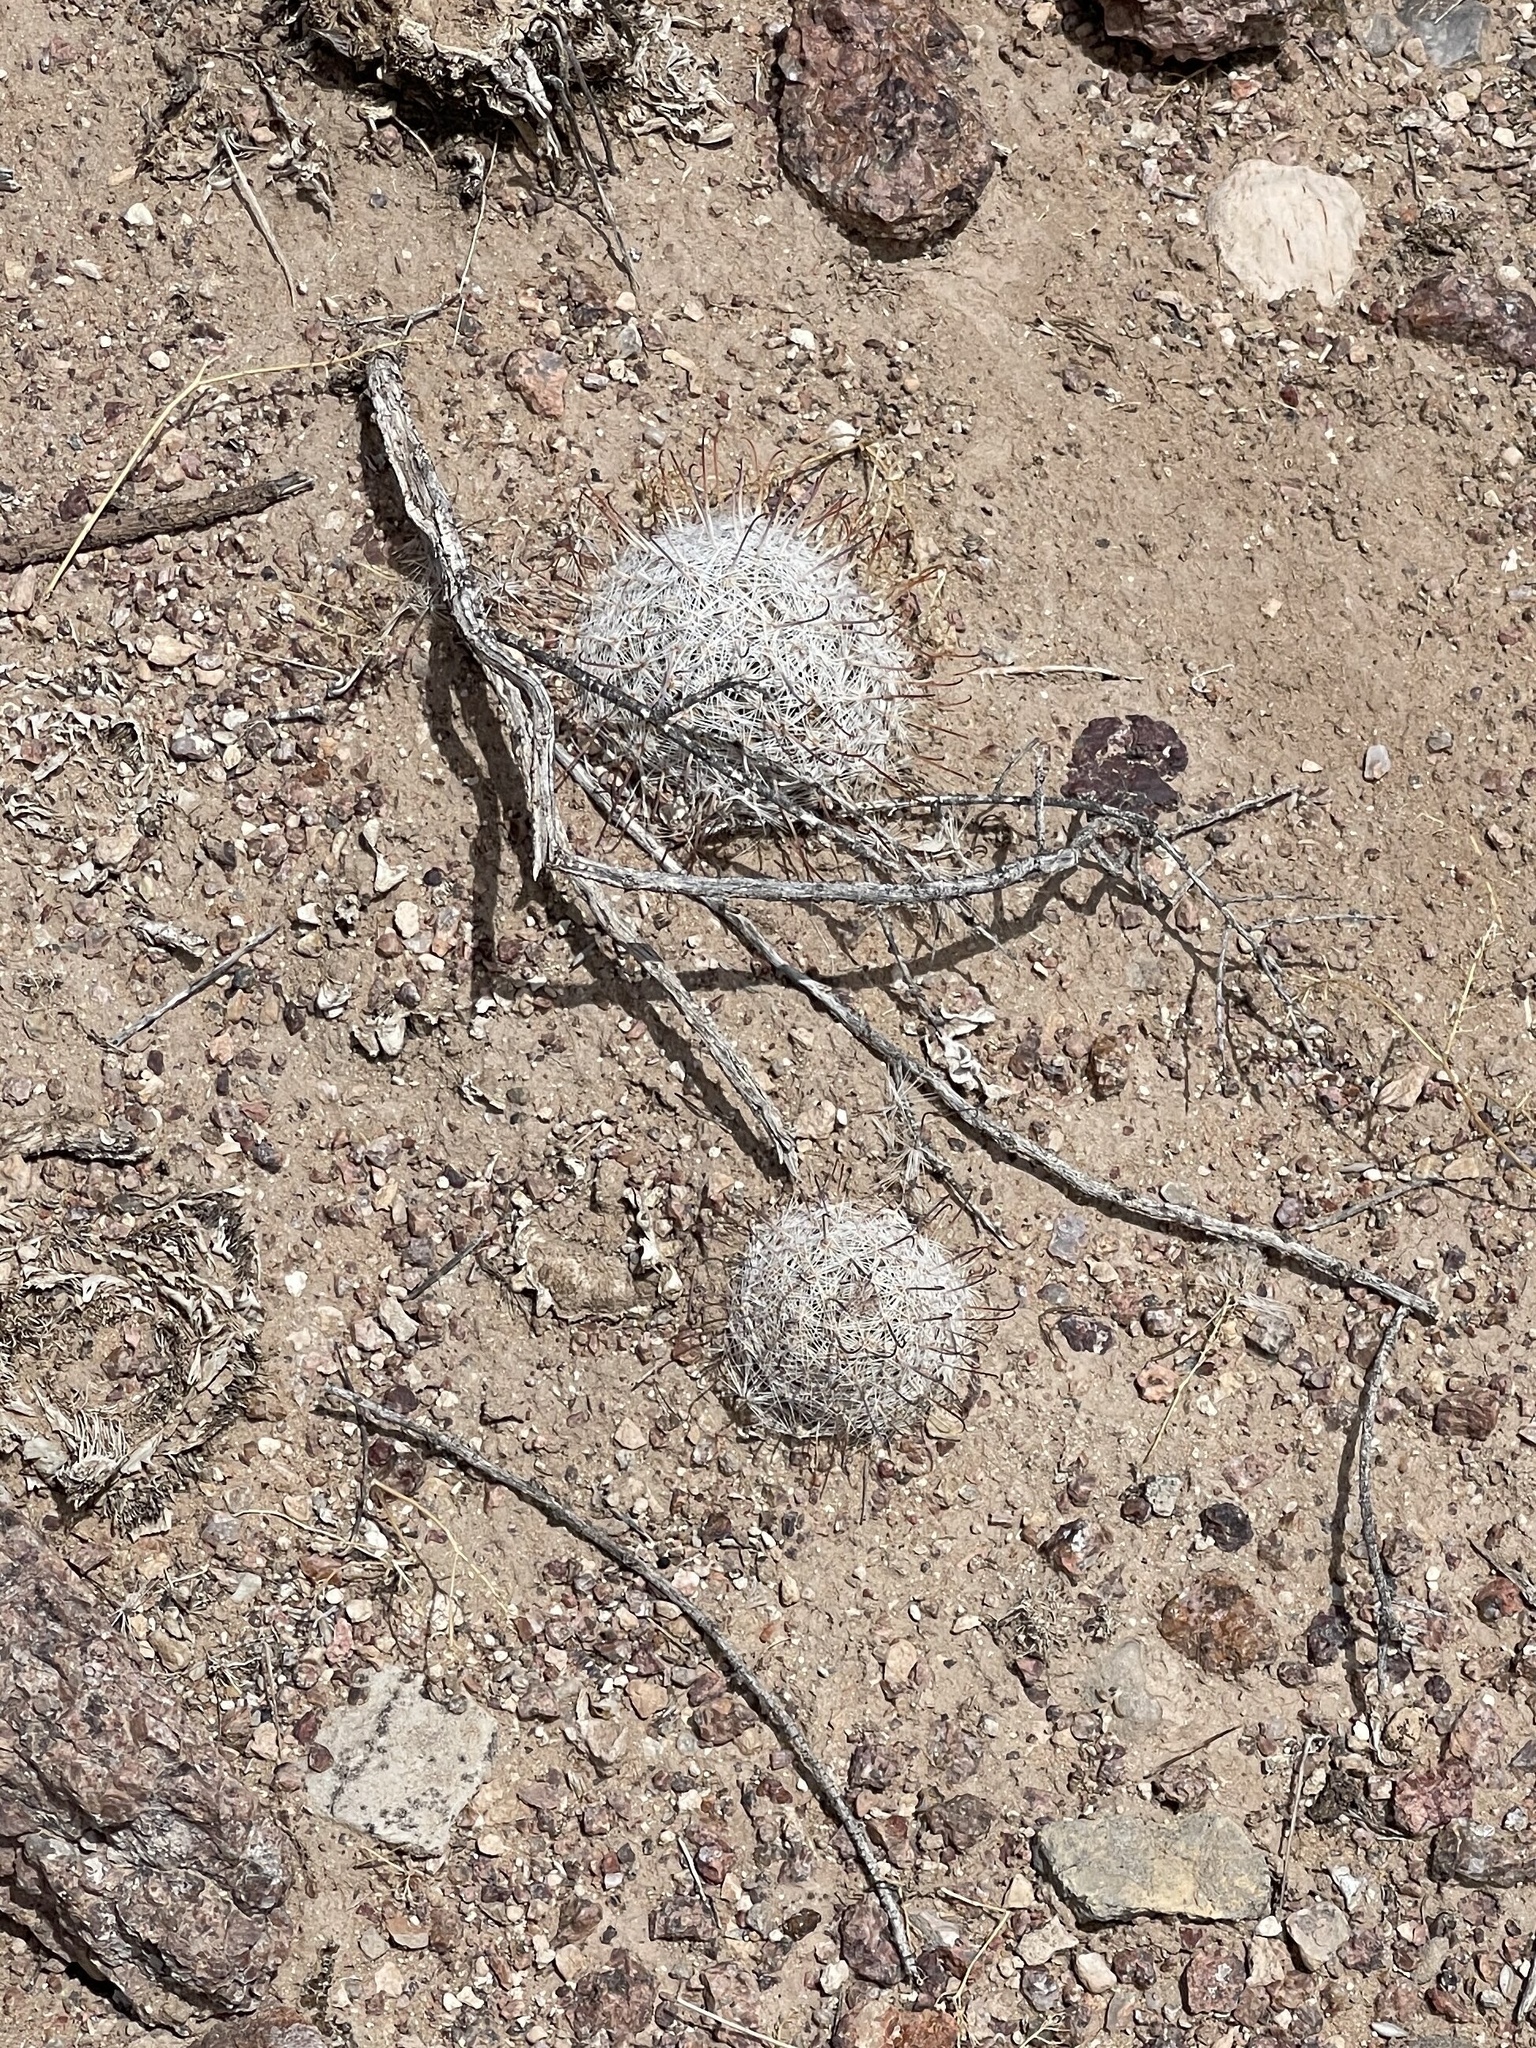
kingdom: Plantae
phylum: Tracheophyta
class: Magnoliopsida
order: Caryophyllales
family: Cactaceae
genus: Cochemiea
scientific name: Cochemiea grahamii
